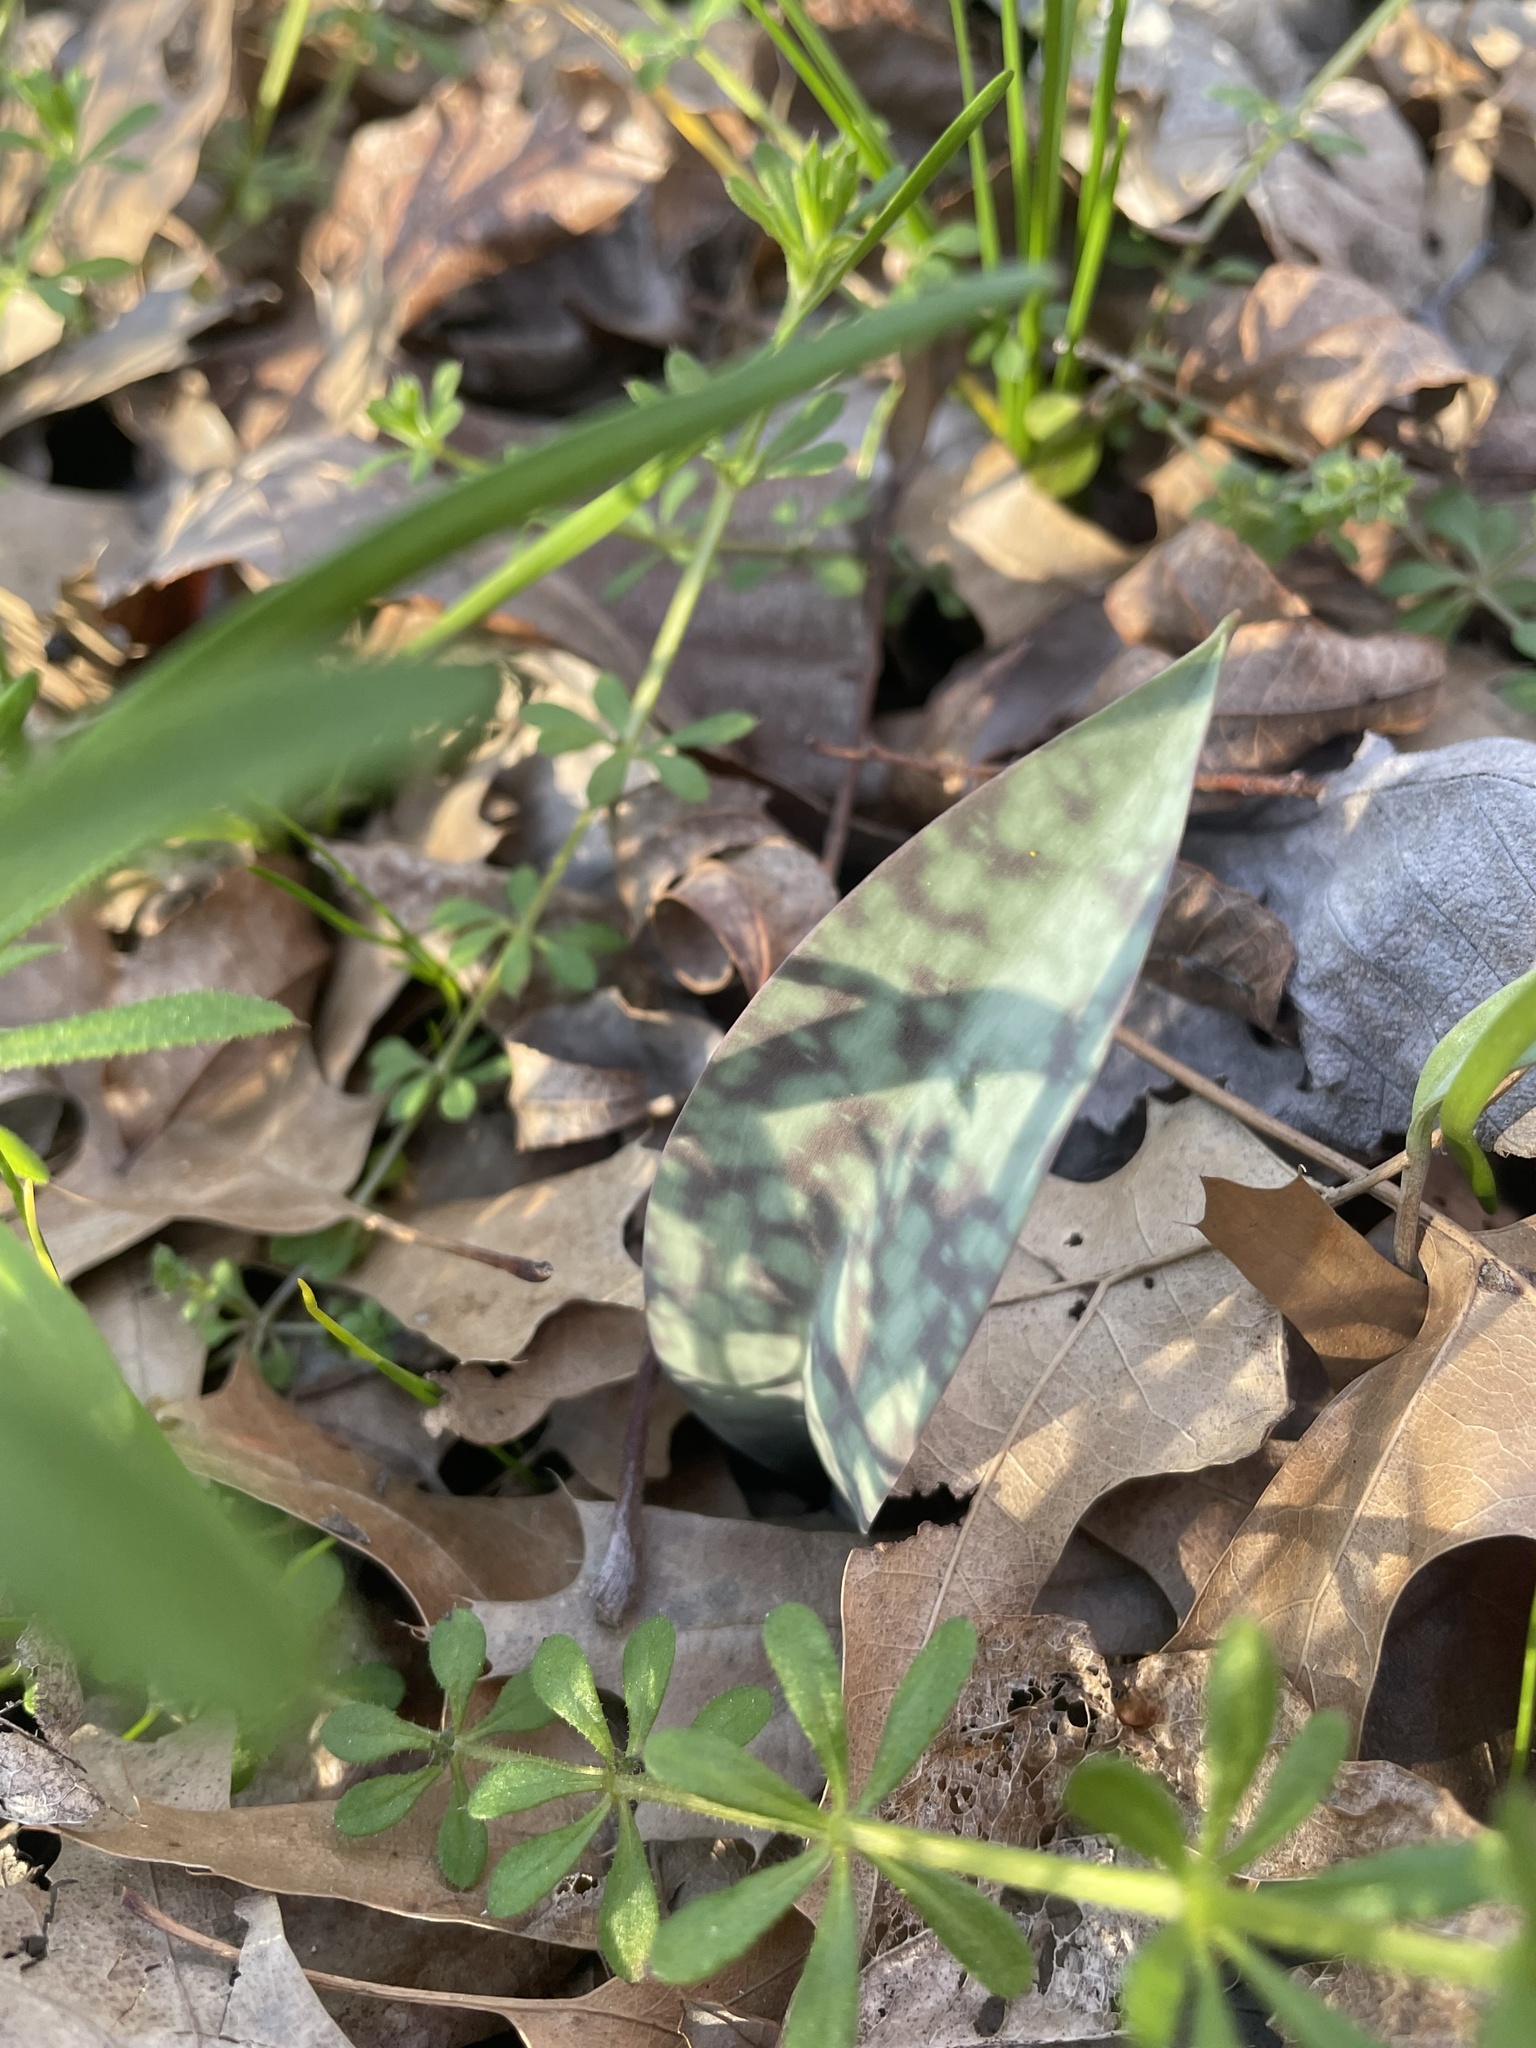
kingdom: Plantae
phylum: Tracheophyta
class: Liliopsida
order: Liliales
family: Liliaceae
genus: Erythronium
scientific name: Erythronium albidum
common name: White trout-lily
